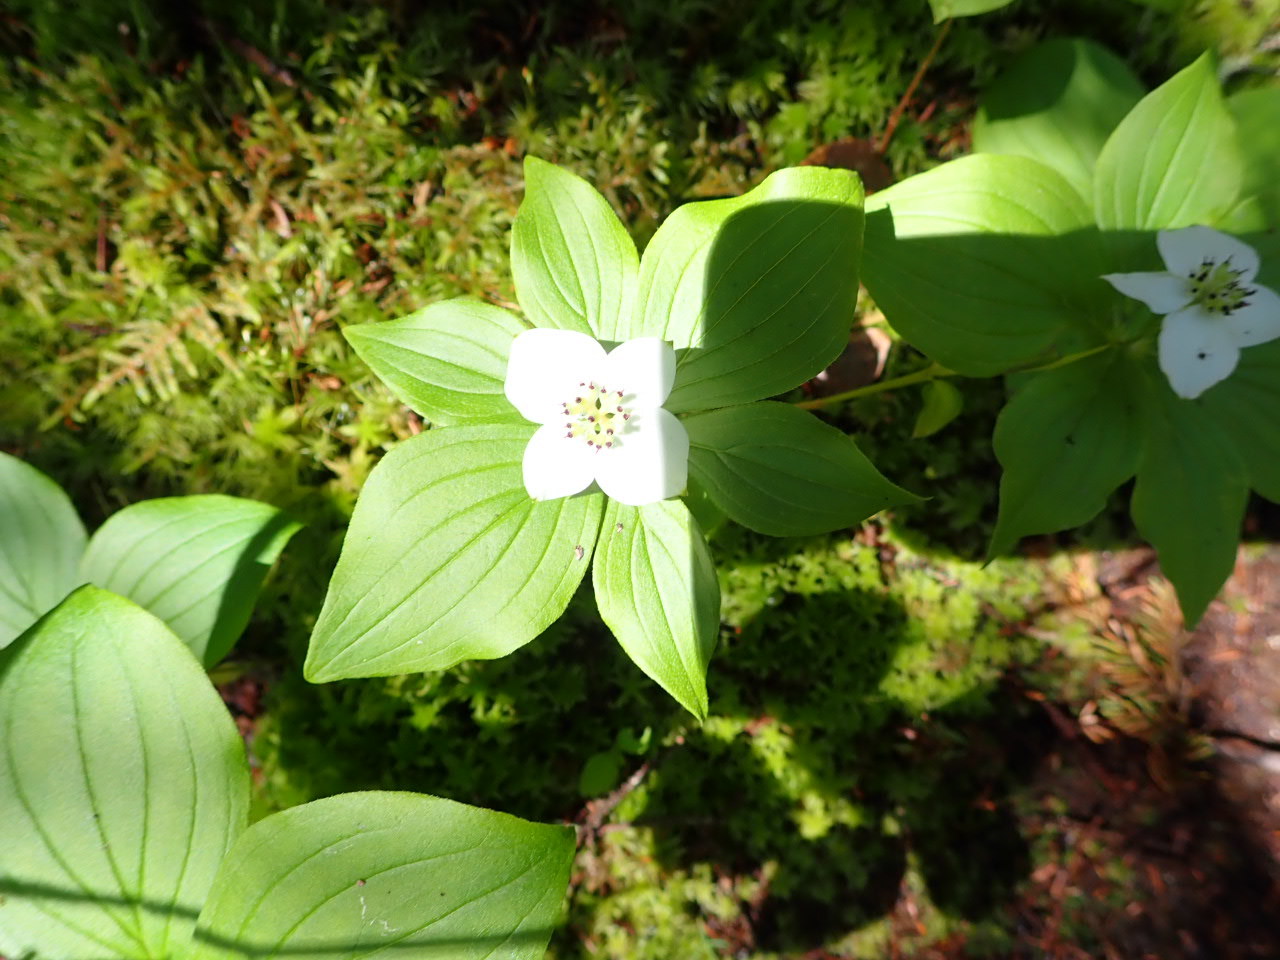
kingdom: Plantae
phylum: Tracheophyta
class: Magnoliopsida
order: Cornales
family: Cornaceae
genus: Cornus
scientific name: Cornus canadensis
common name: Creeping dogwood
